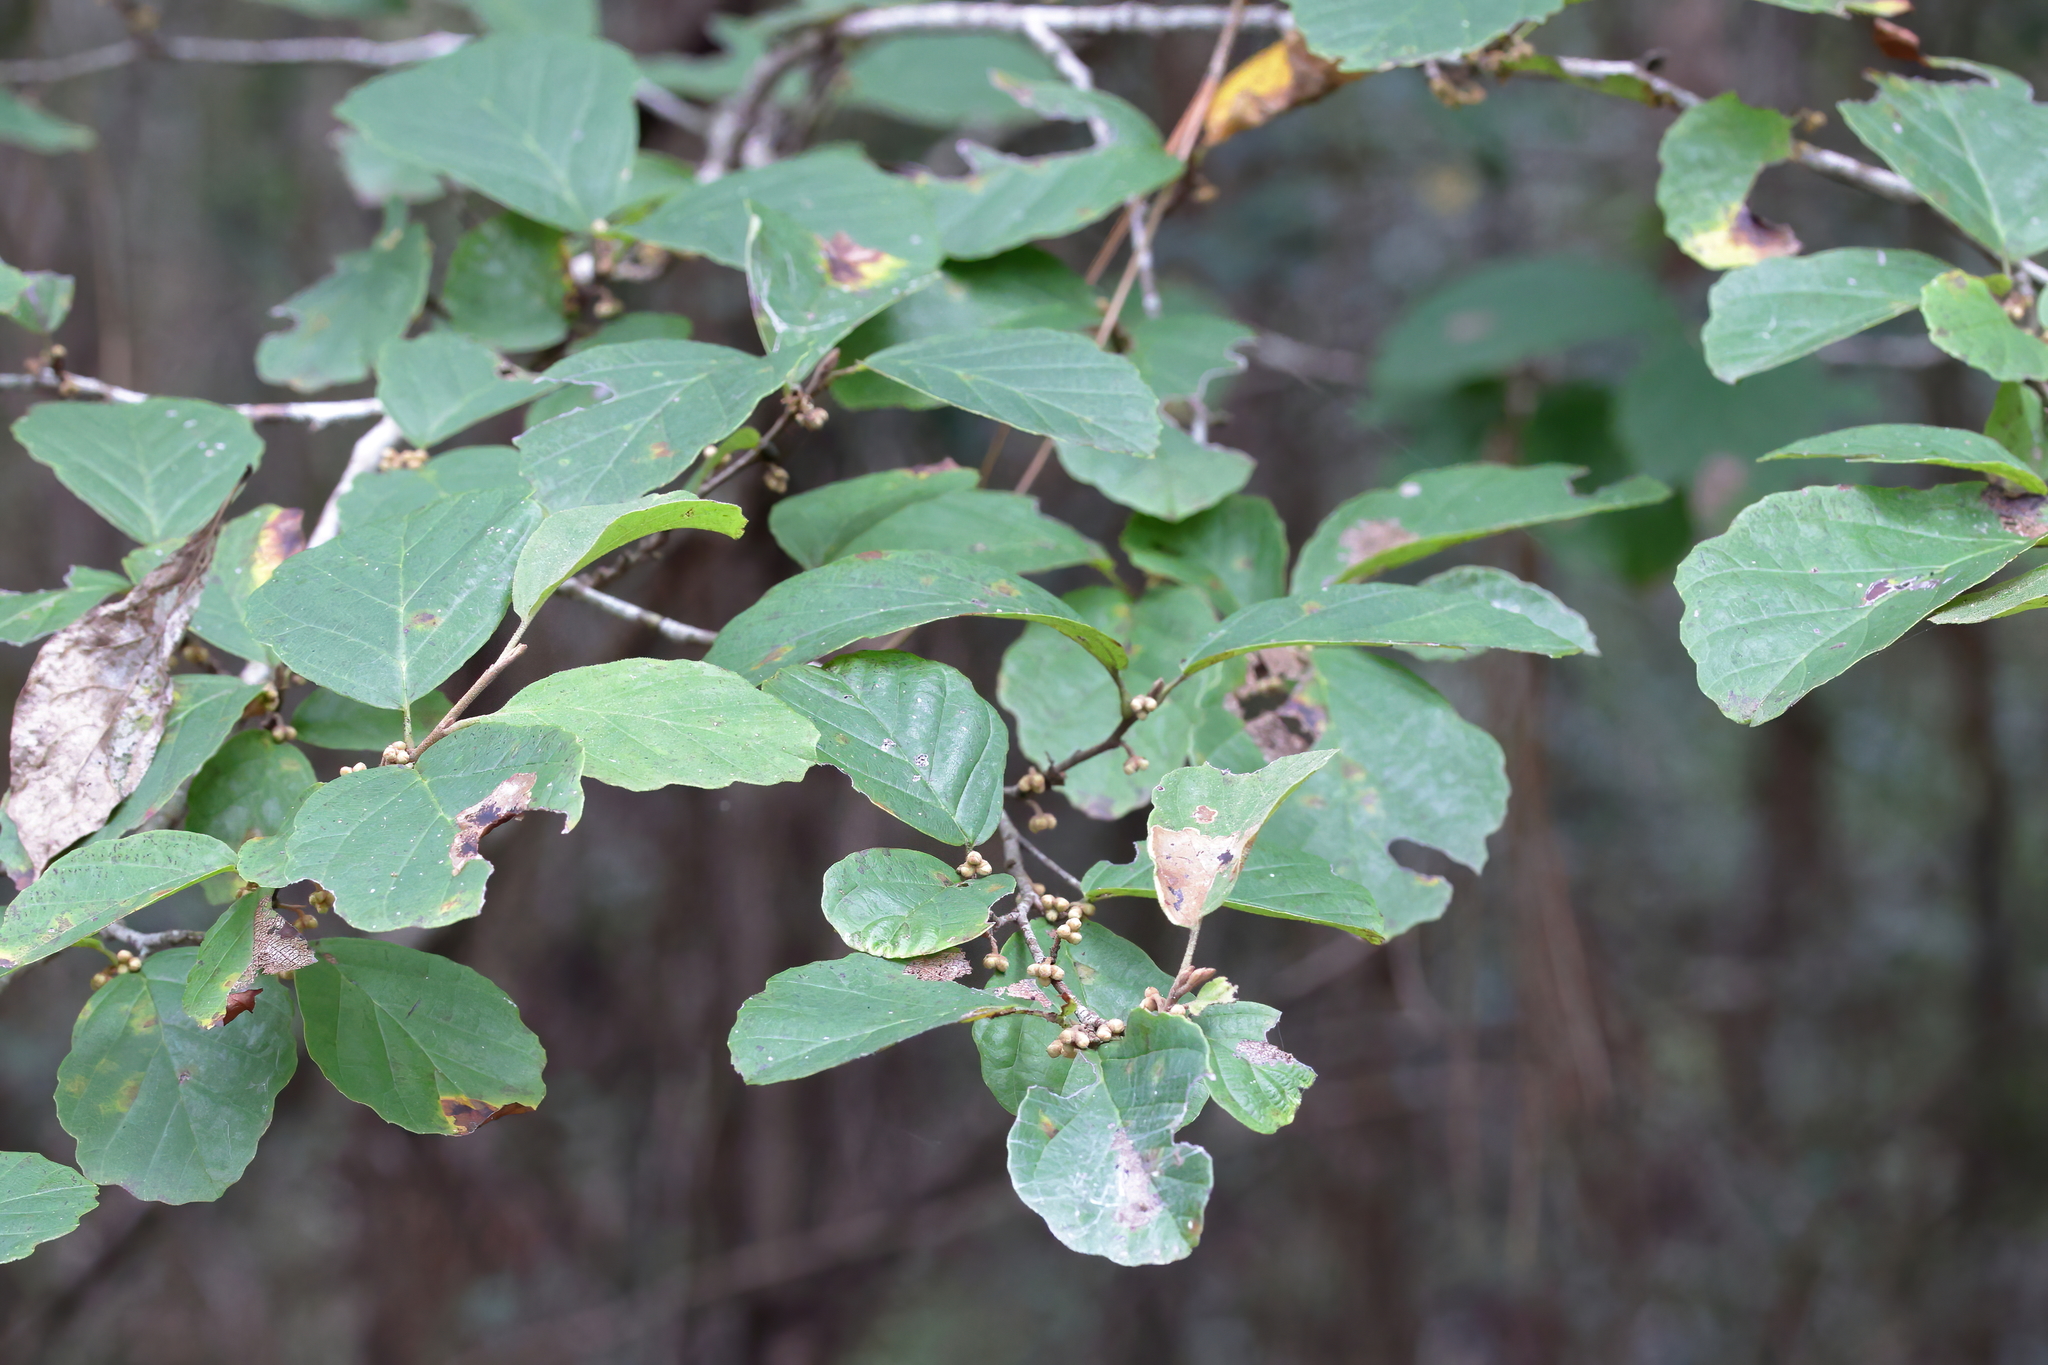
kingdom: Plantae
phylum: Tracheophyta
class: Magnoliopsida
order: Saxifragales
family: Hamamelidaceae
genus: Hamamelis
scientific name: Hamamelis virginiana
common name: Witch-hazel
